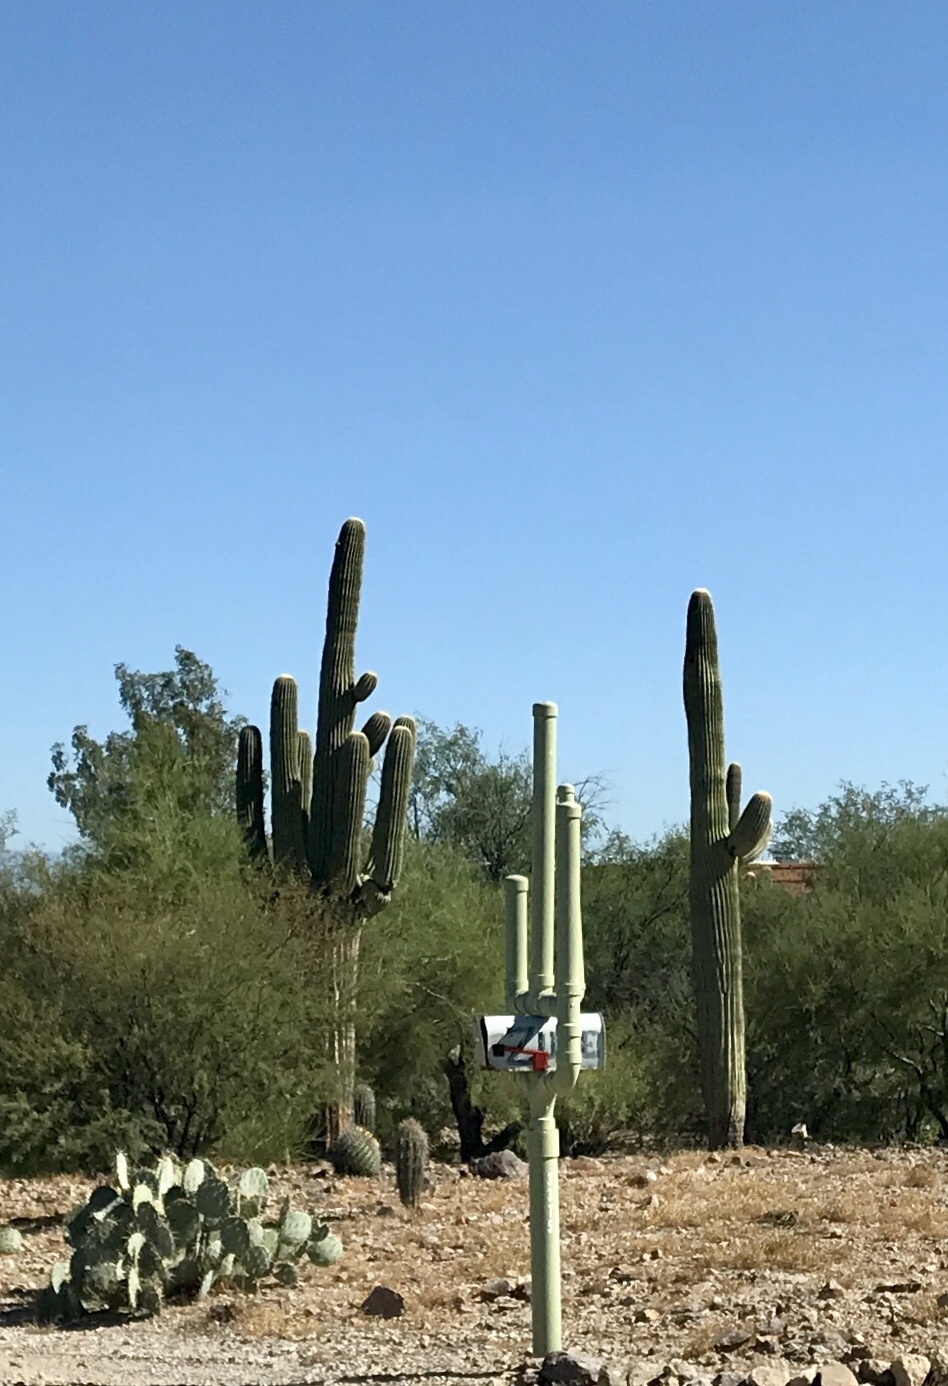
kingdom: Plantae
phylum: Tracheophyta
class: Magnoliopsida
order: Caryophyllales
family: Cactaceae
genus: Carnegiea
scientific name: Carnegiea gigantea
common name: Saguaro
